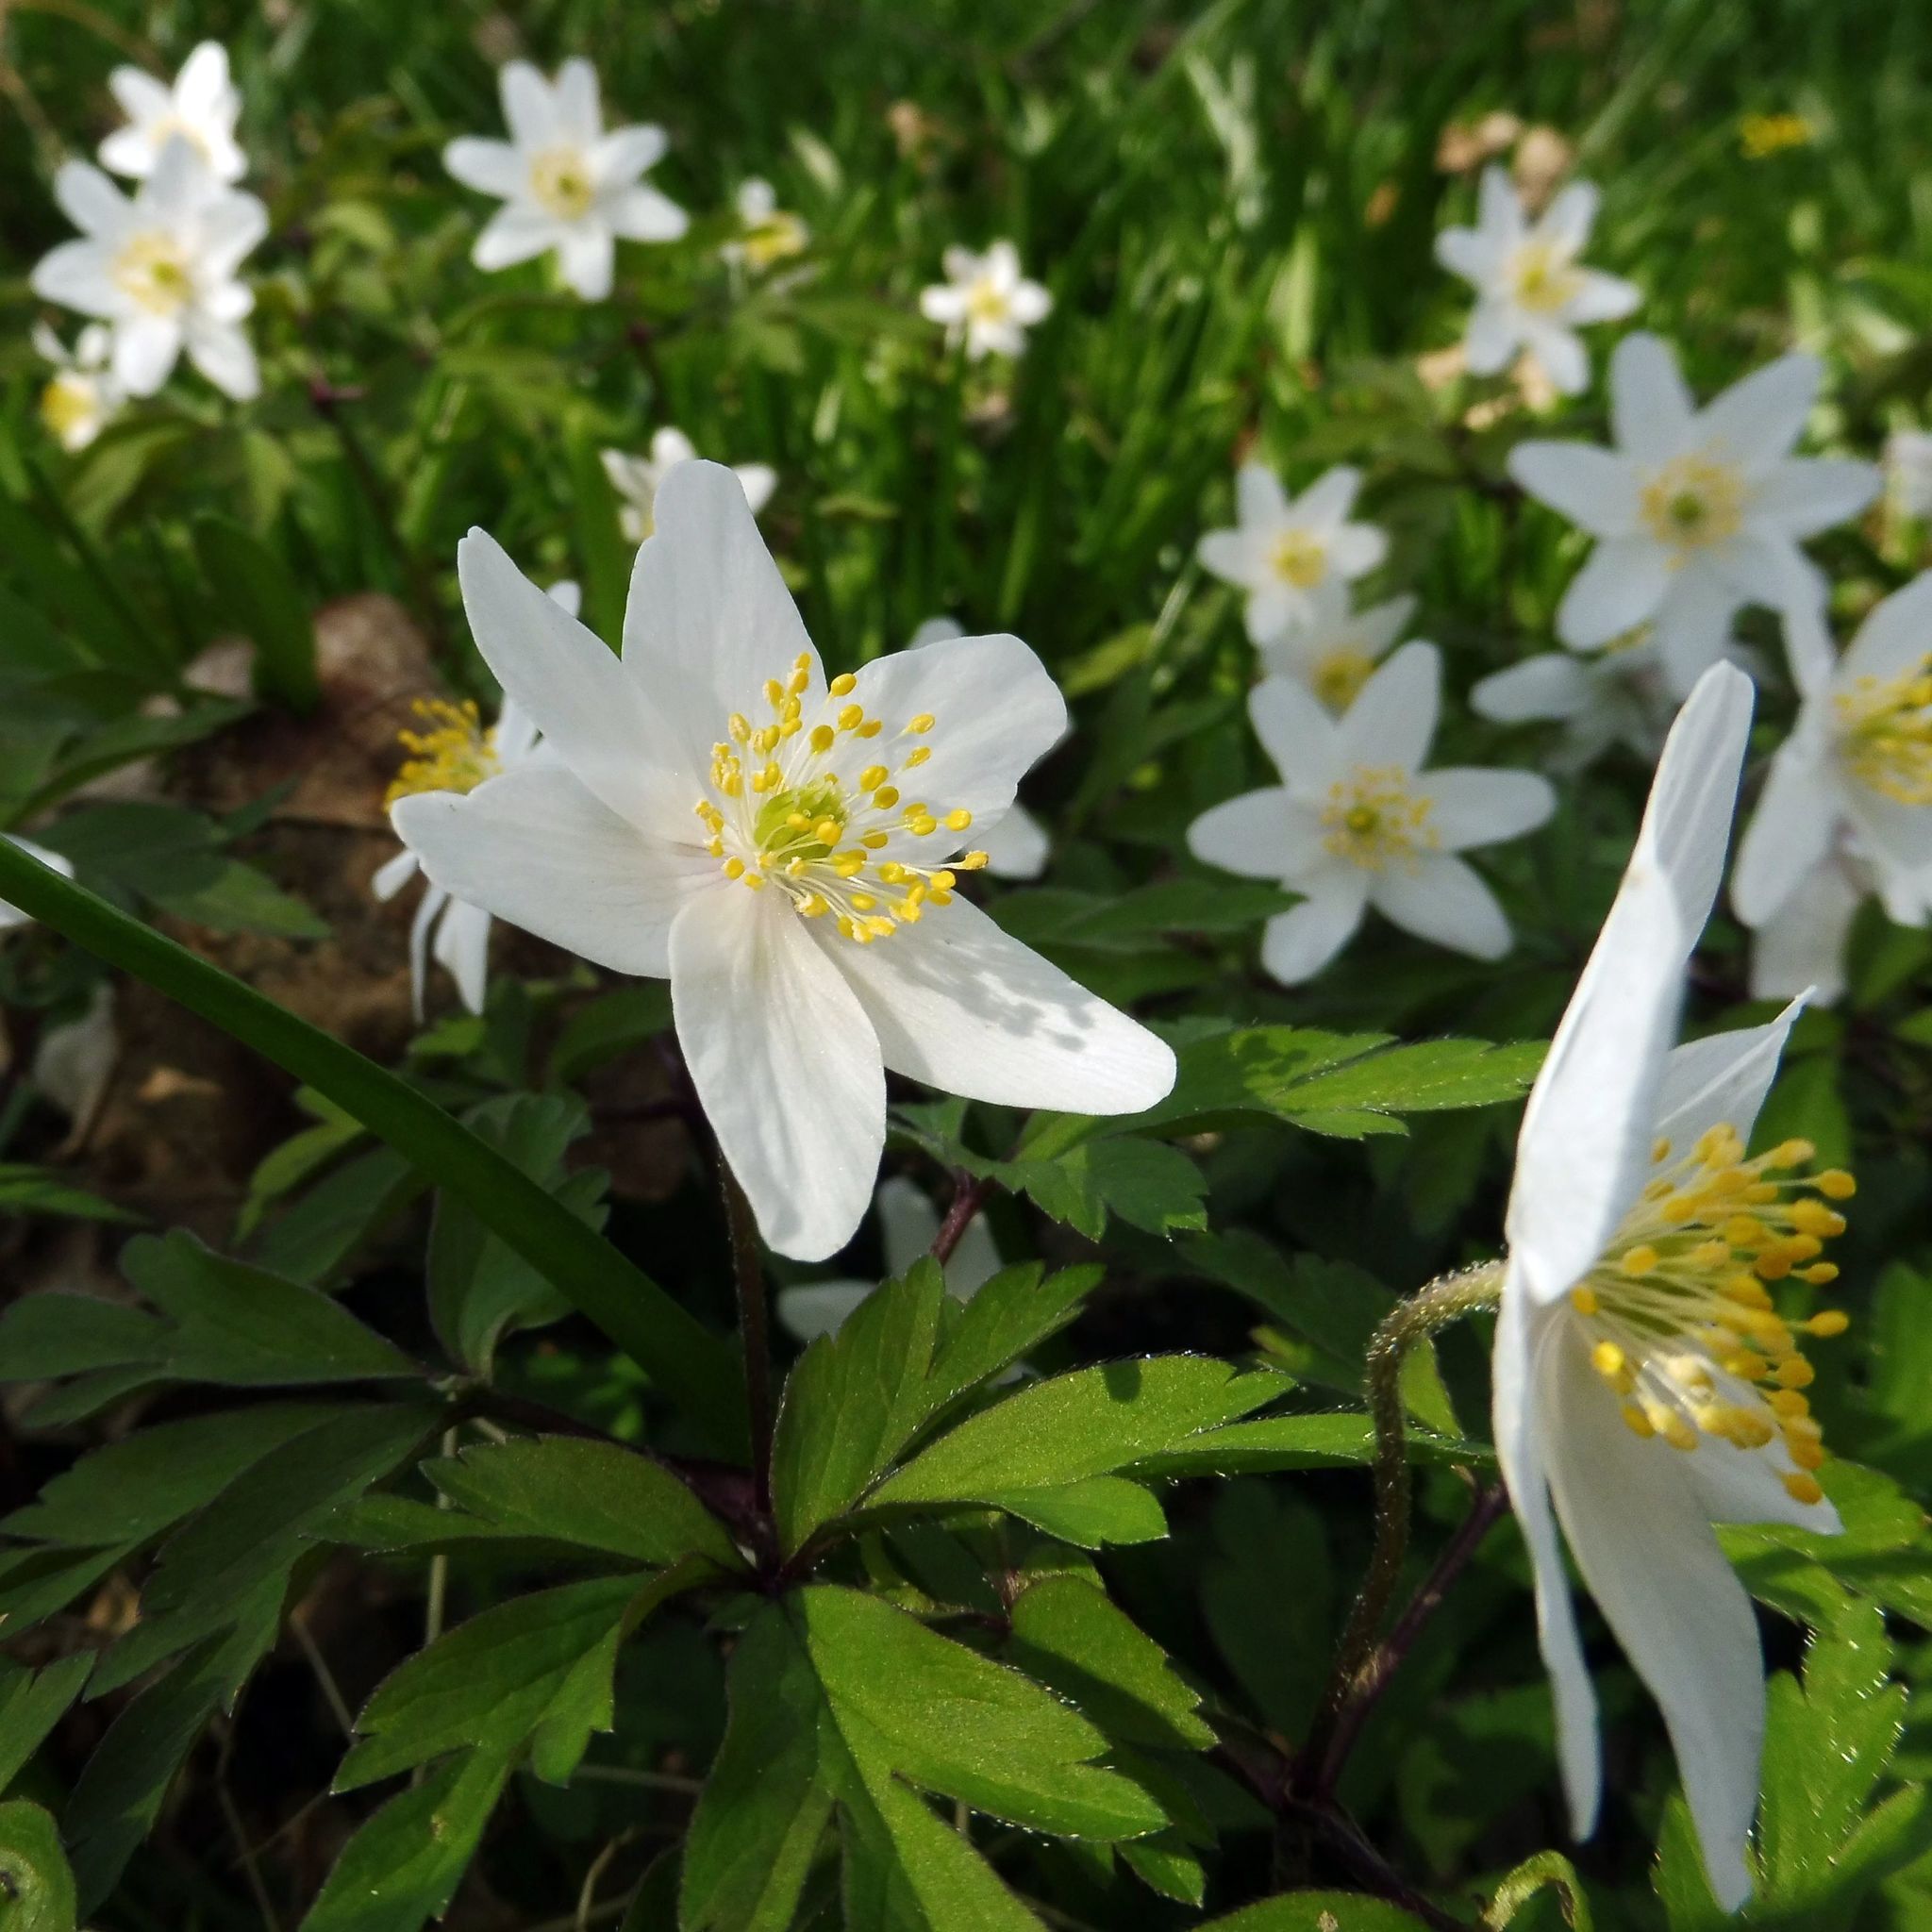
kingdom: Plantae
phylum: Tracheophyta
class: Magnoliopsida
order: Ranunculales
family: Ranunculaceae
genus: Anemone
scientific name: Anemone nemorosa
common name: Wood anemone
